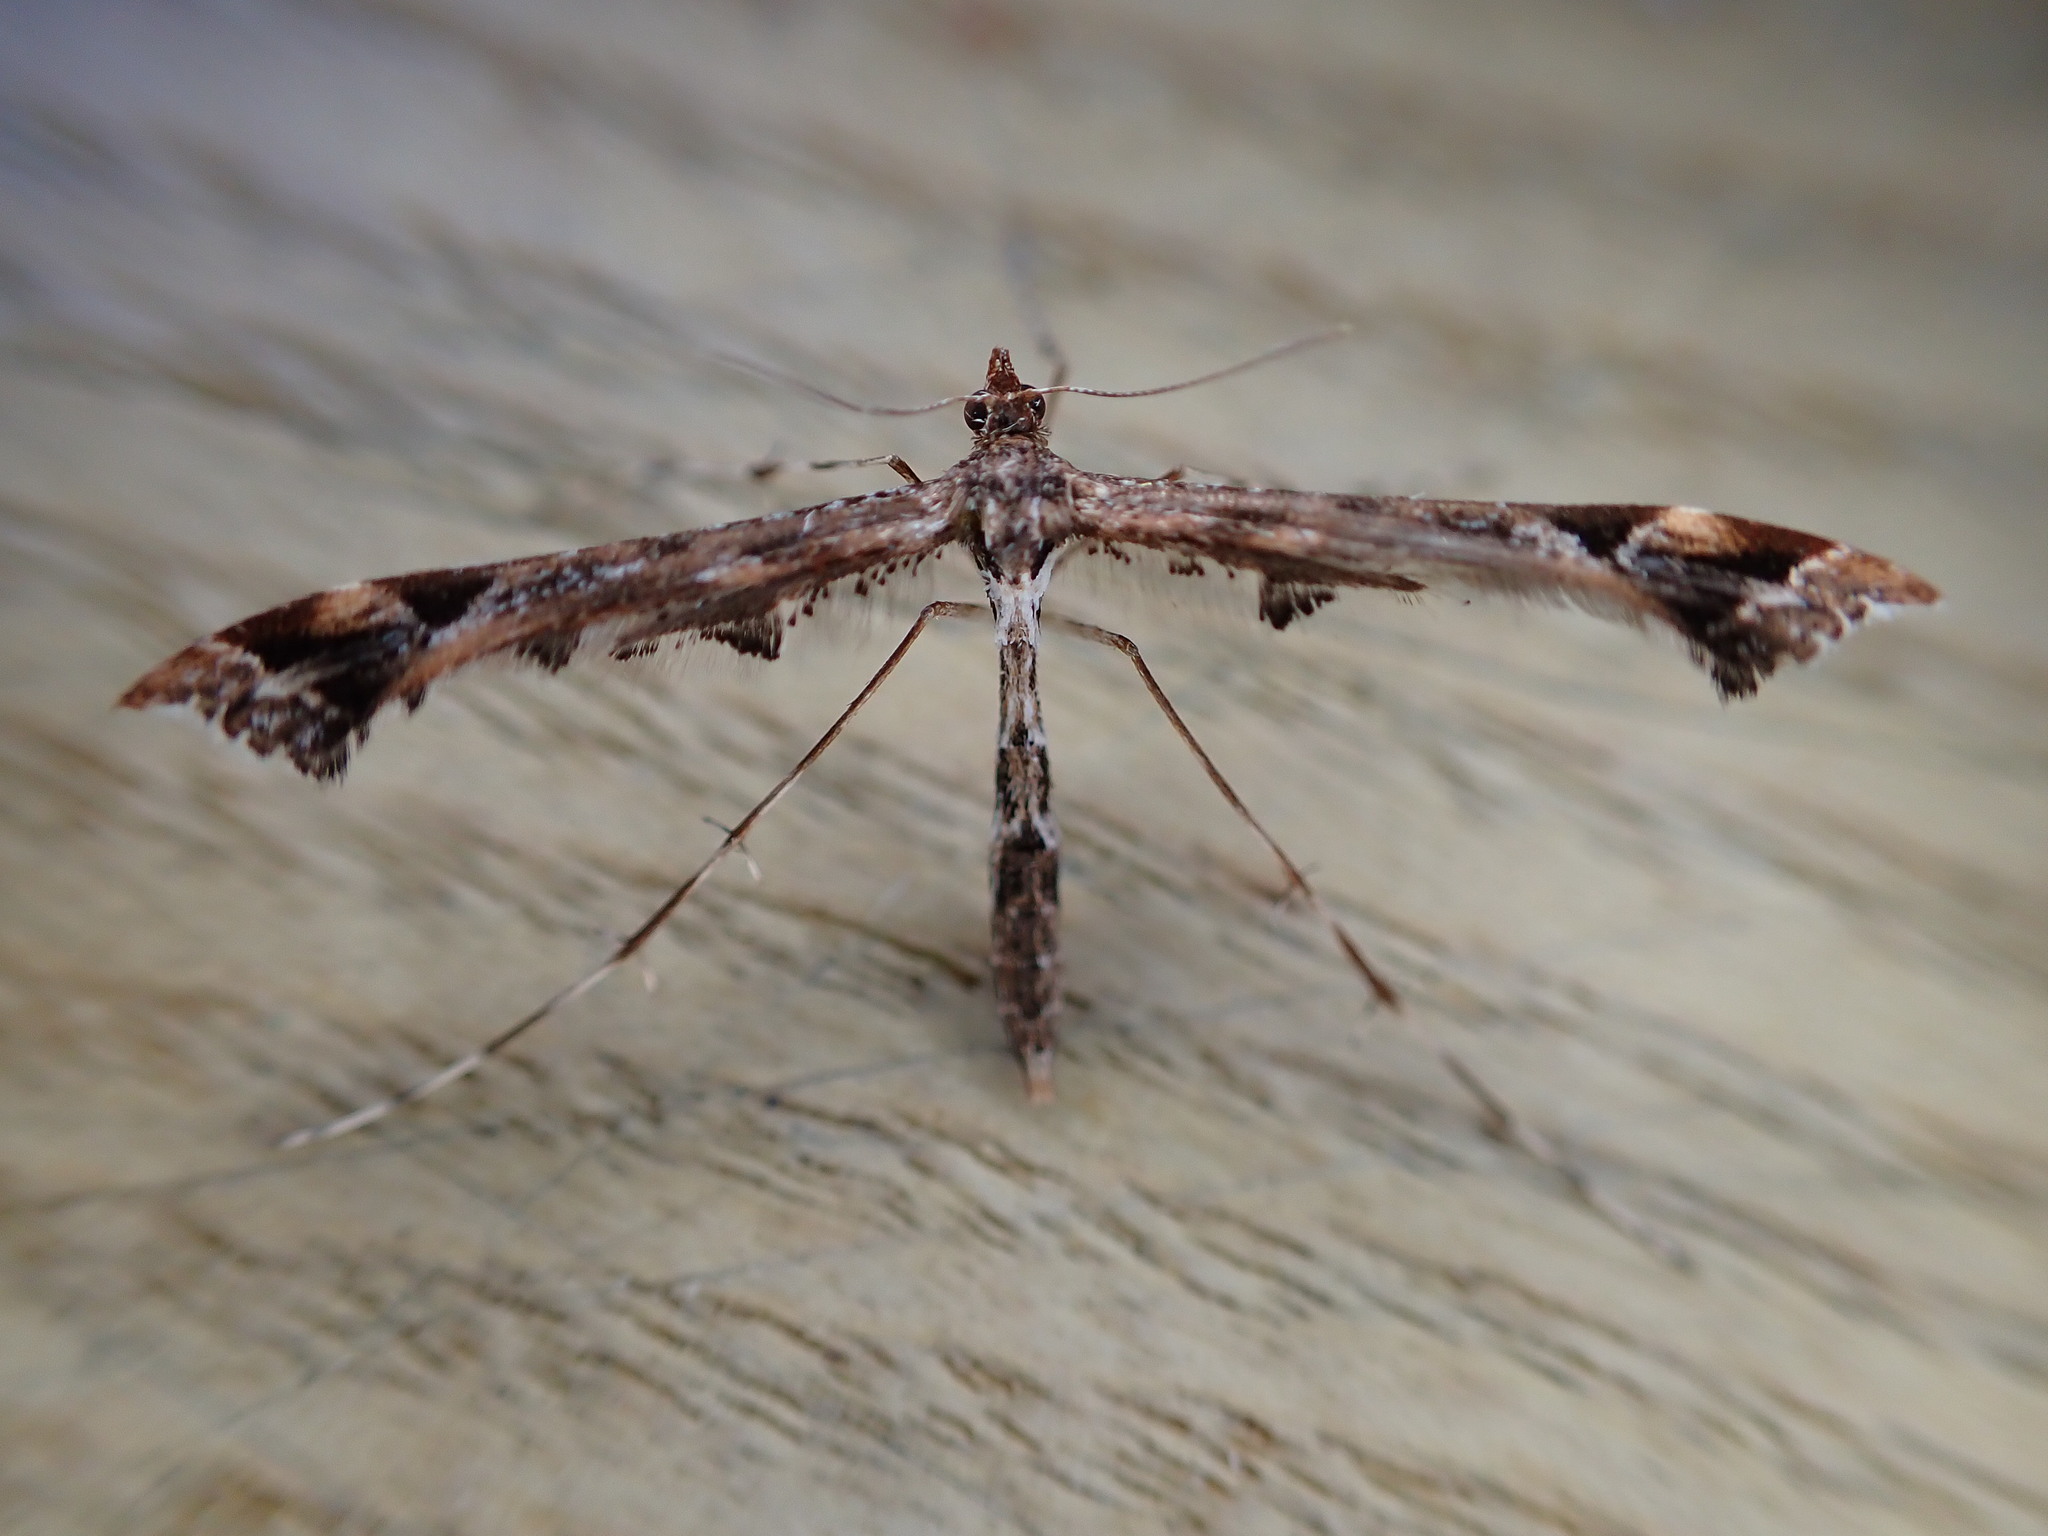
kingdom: Animalia
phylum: Arthropoda
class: Insecta
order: Lepidoptera
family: Pterophoridae
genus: Amblyptilia
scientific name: Amblyptilia acanthadactyla
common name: Beautiful plume
